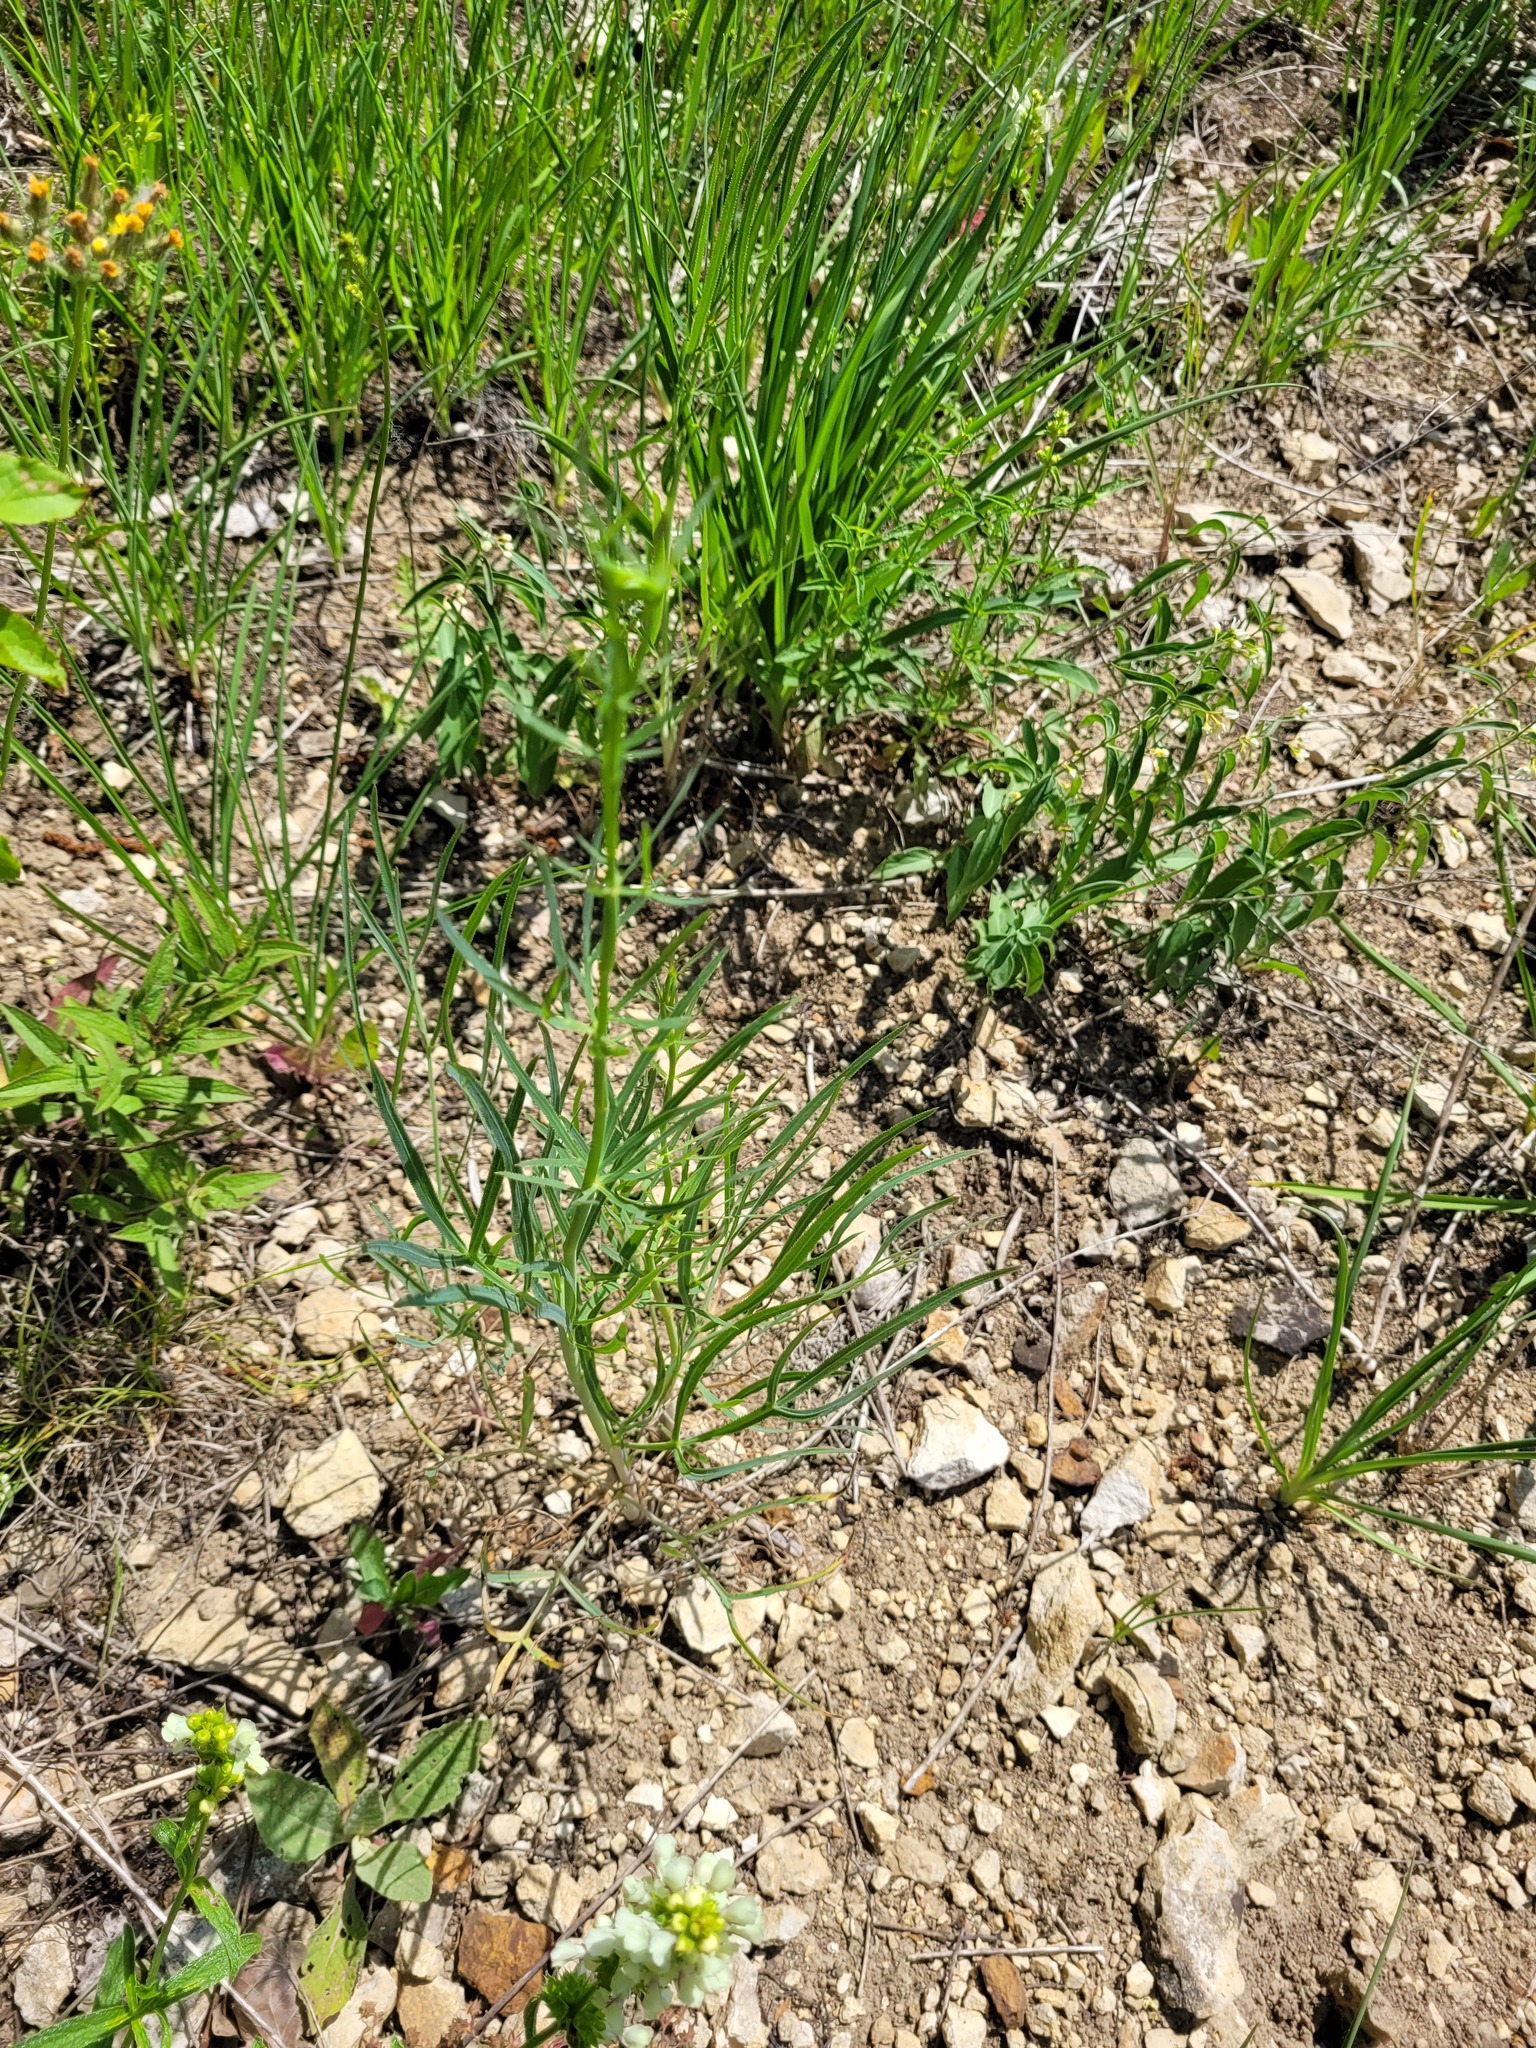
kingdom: Plantae
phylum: Tracheophyta
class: Magnoliopsida
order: Apiales
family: Apiaceae
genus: Falcaria
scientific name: Falcaria vulgaris
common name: Longleaf
